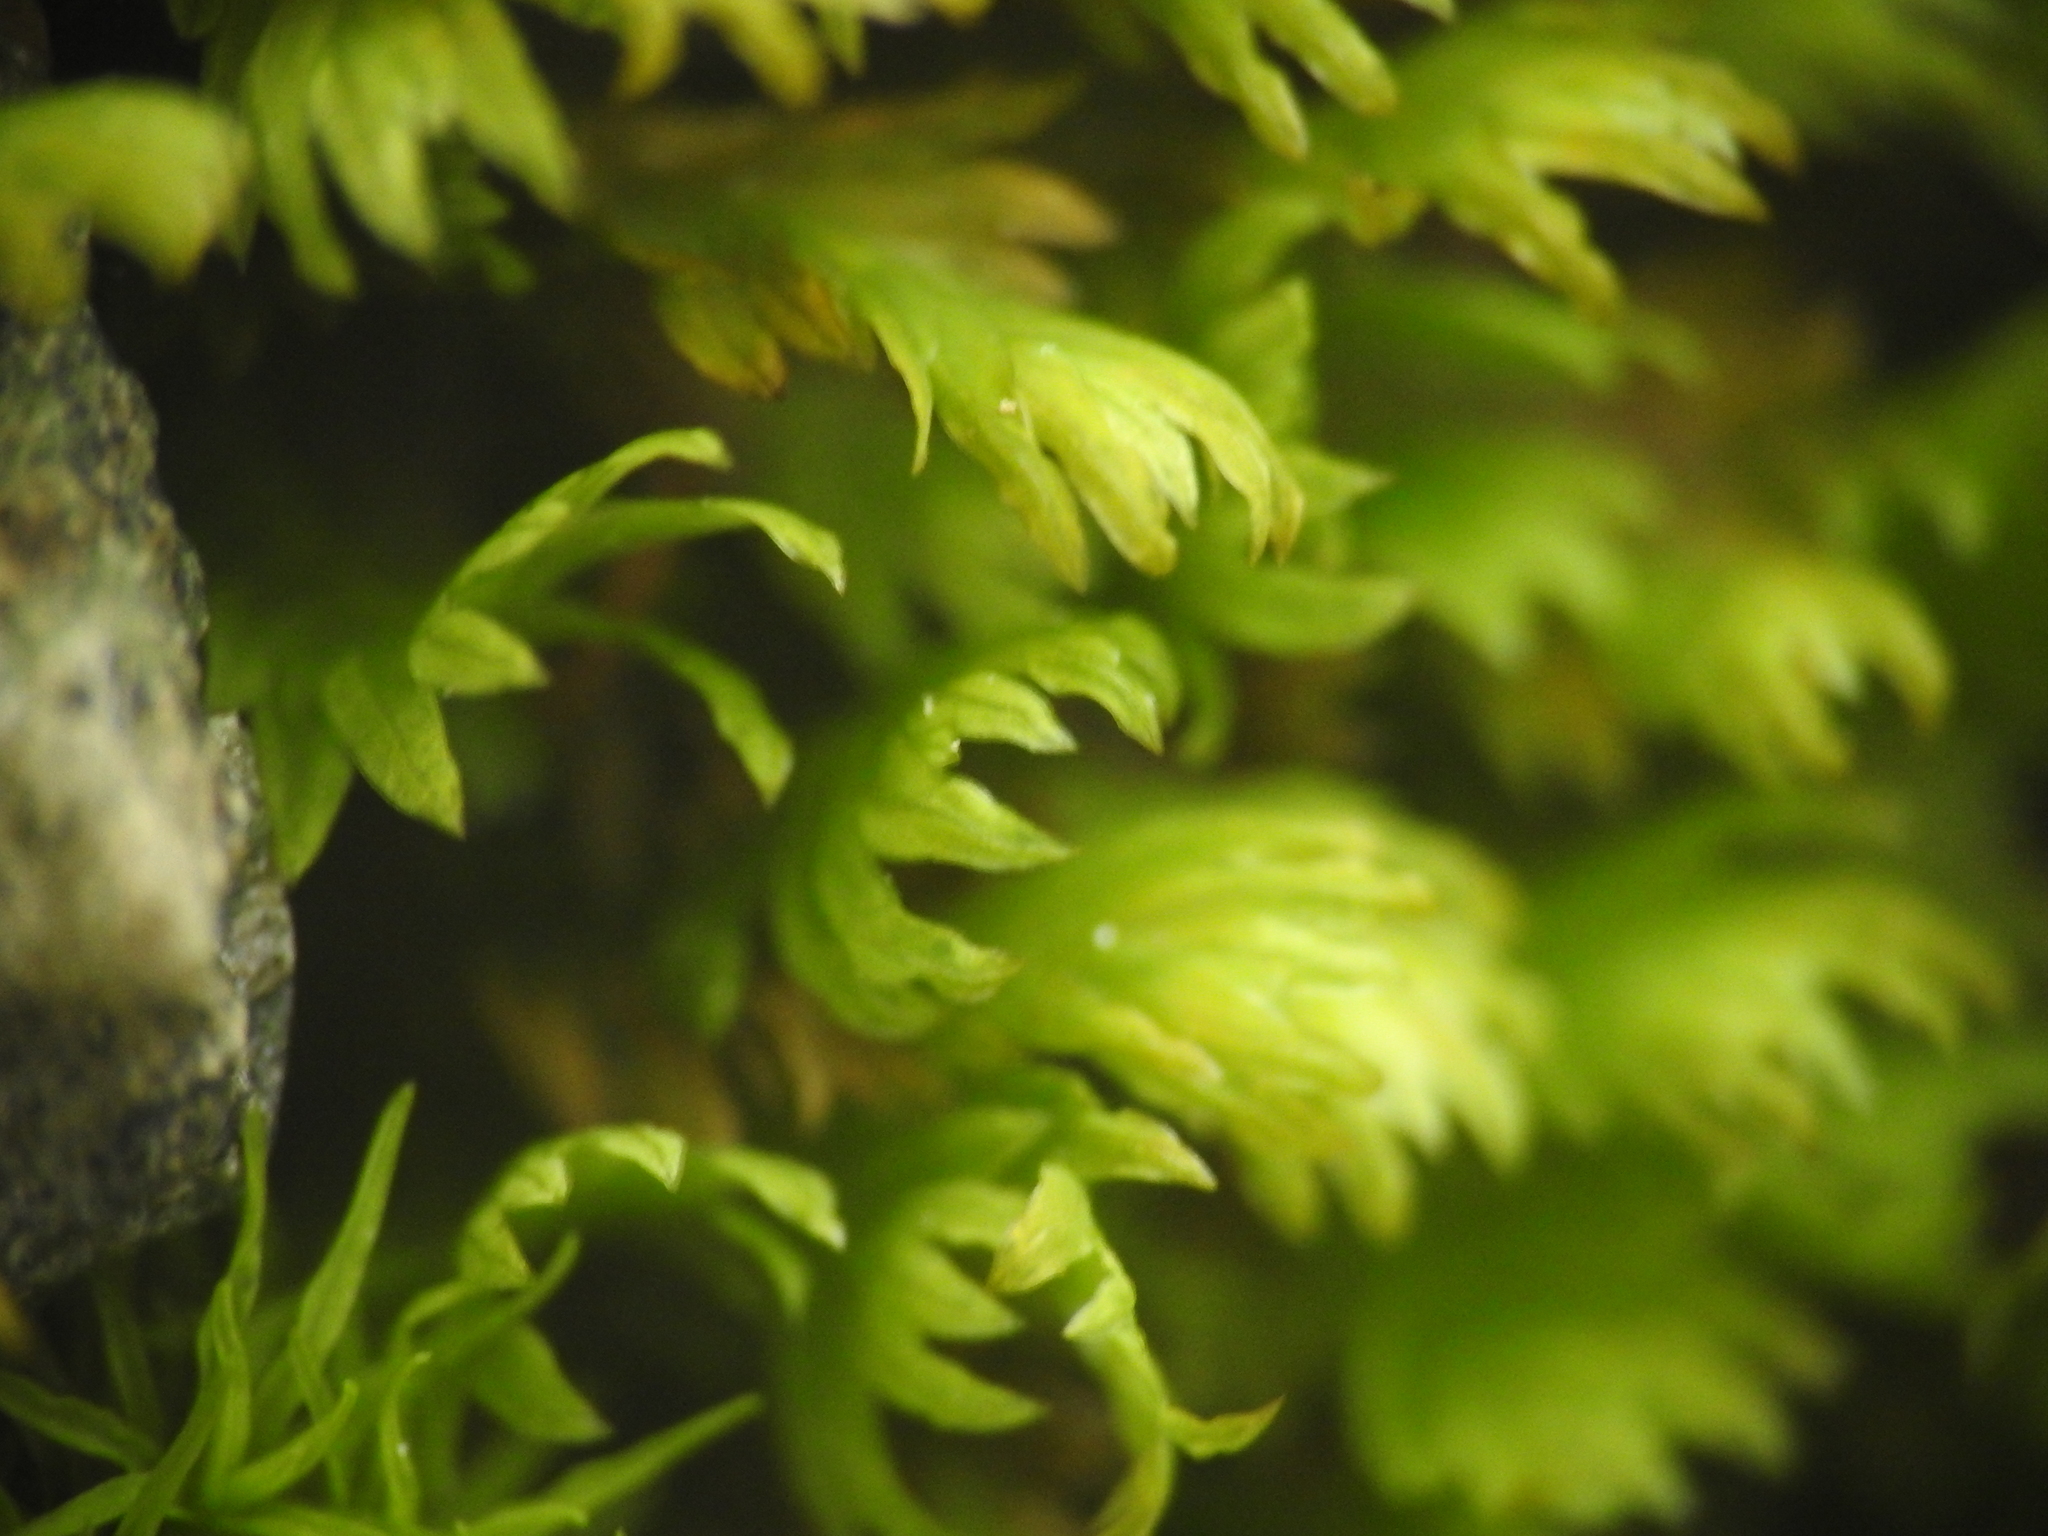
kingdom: Plantae
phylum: Bryophyta
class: Bryopsida
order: Dicranales
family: Fissidentaceae
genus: Fissidens
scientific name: Fissidens dubius
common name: Rock pocket moss
